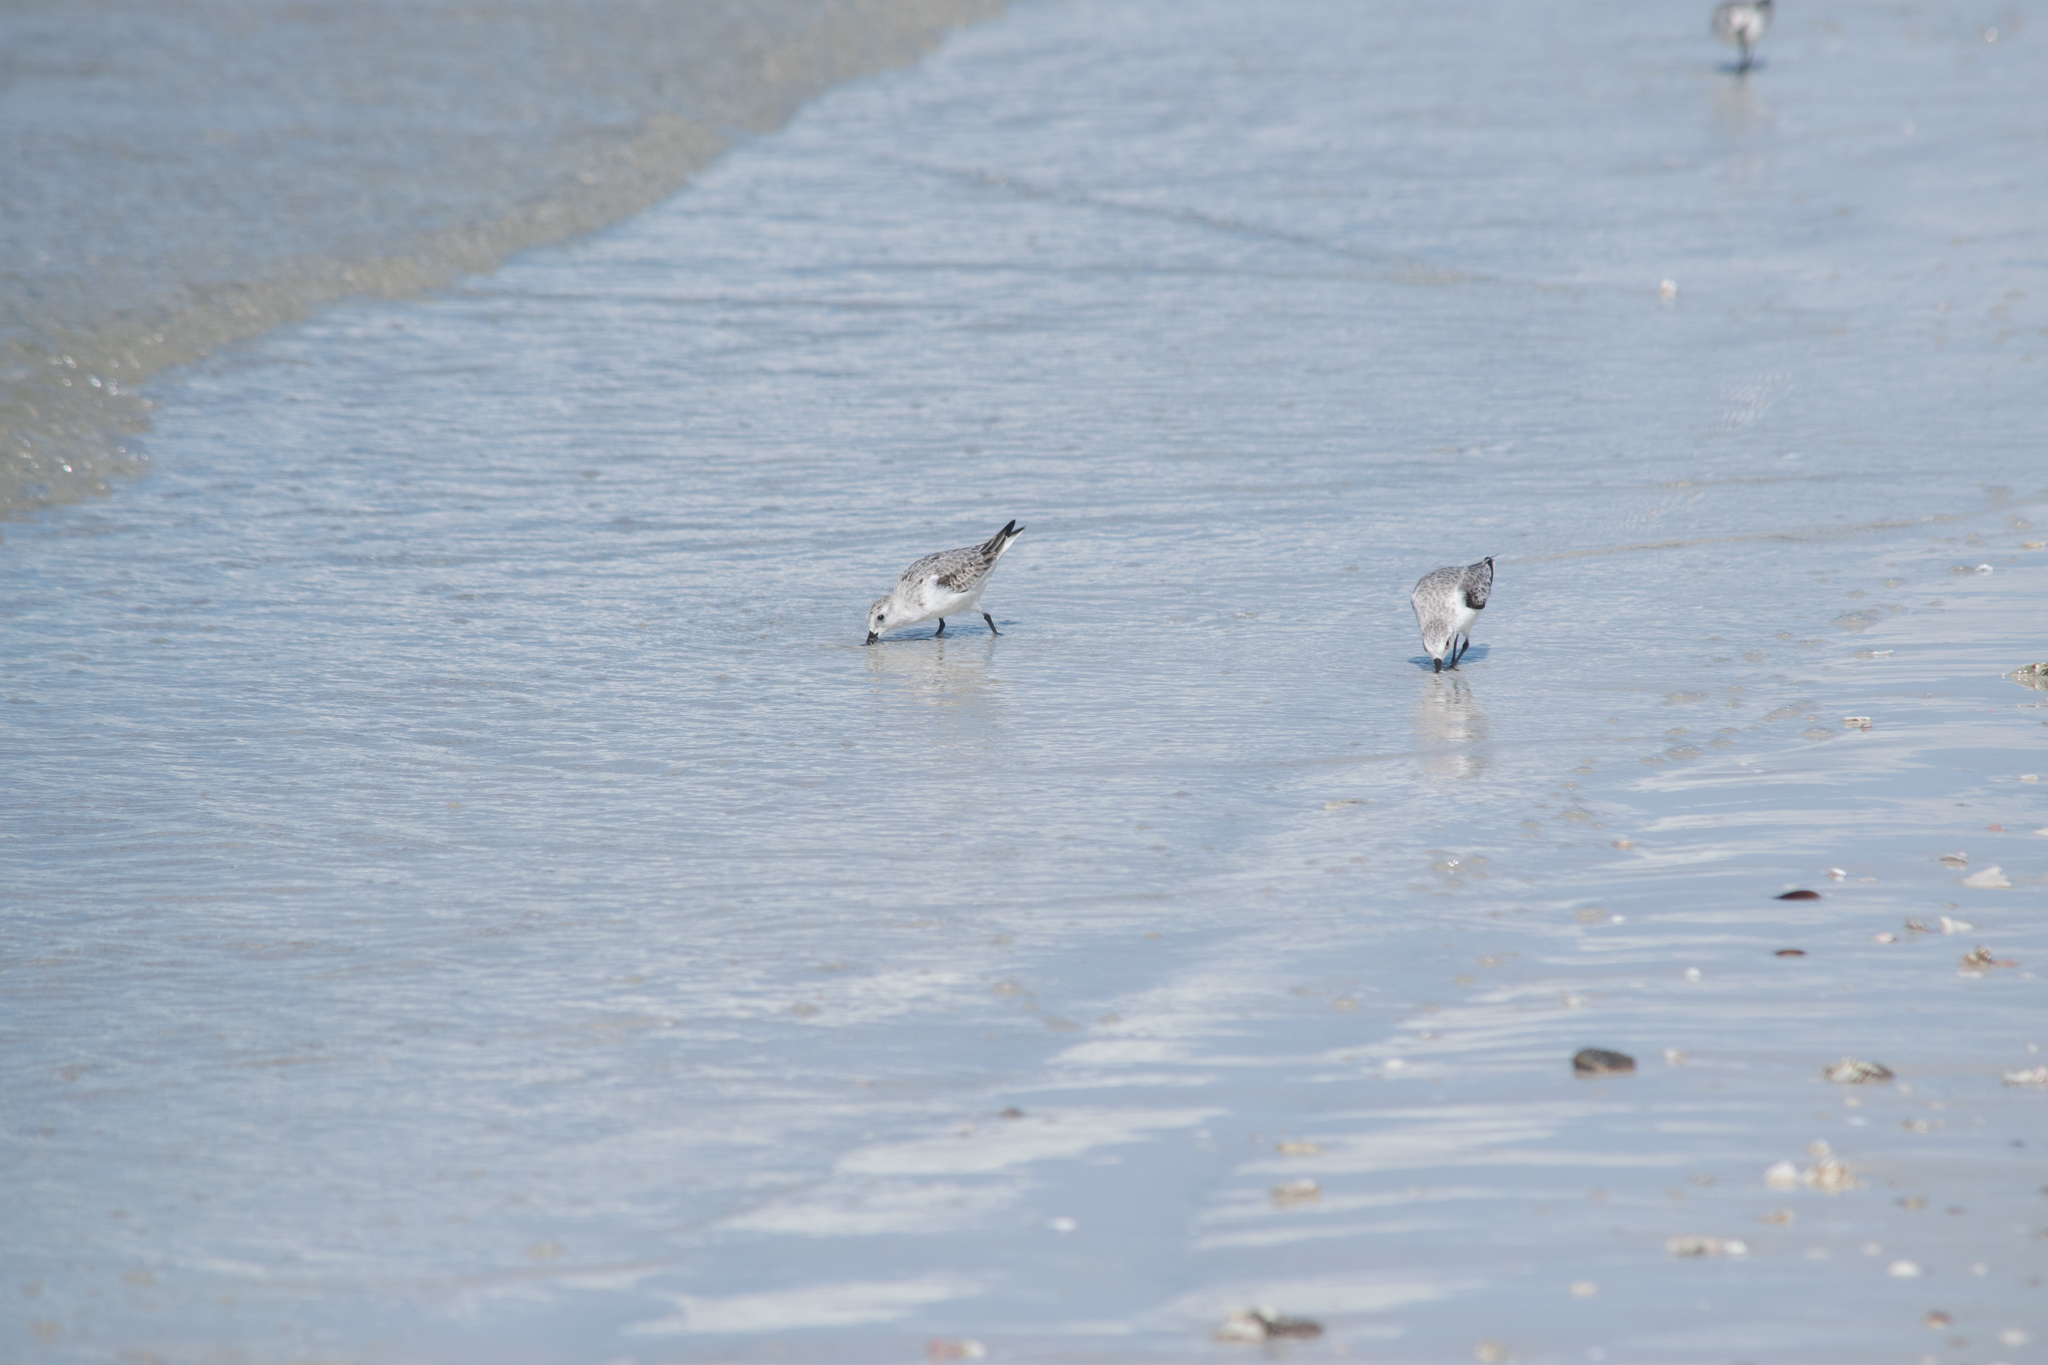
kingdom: Animalia
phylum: Chordata
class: Aves
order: Charadriiformes
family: Scolopacidae
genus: Calidris
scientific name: Calidris alba
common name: Sanderling
